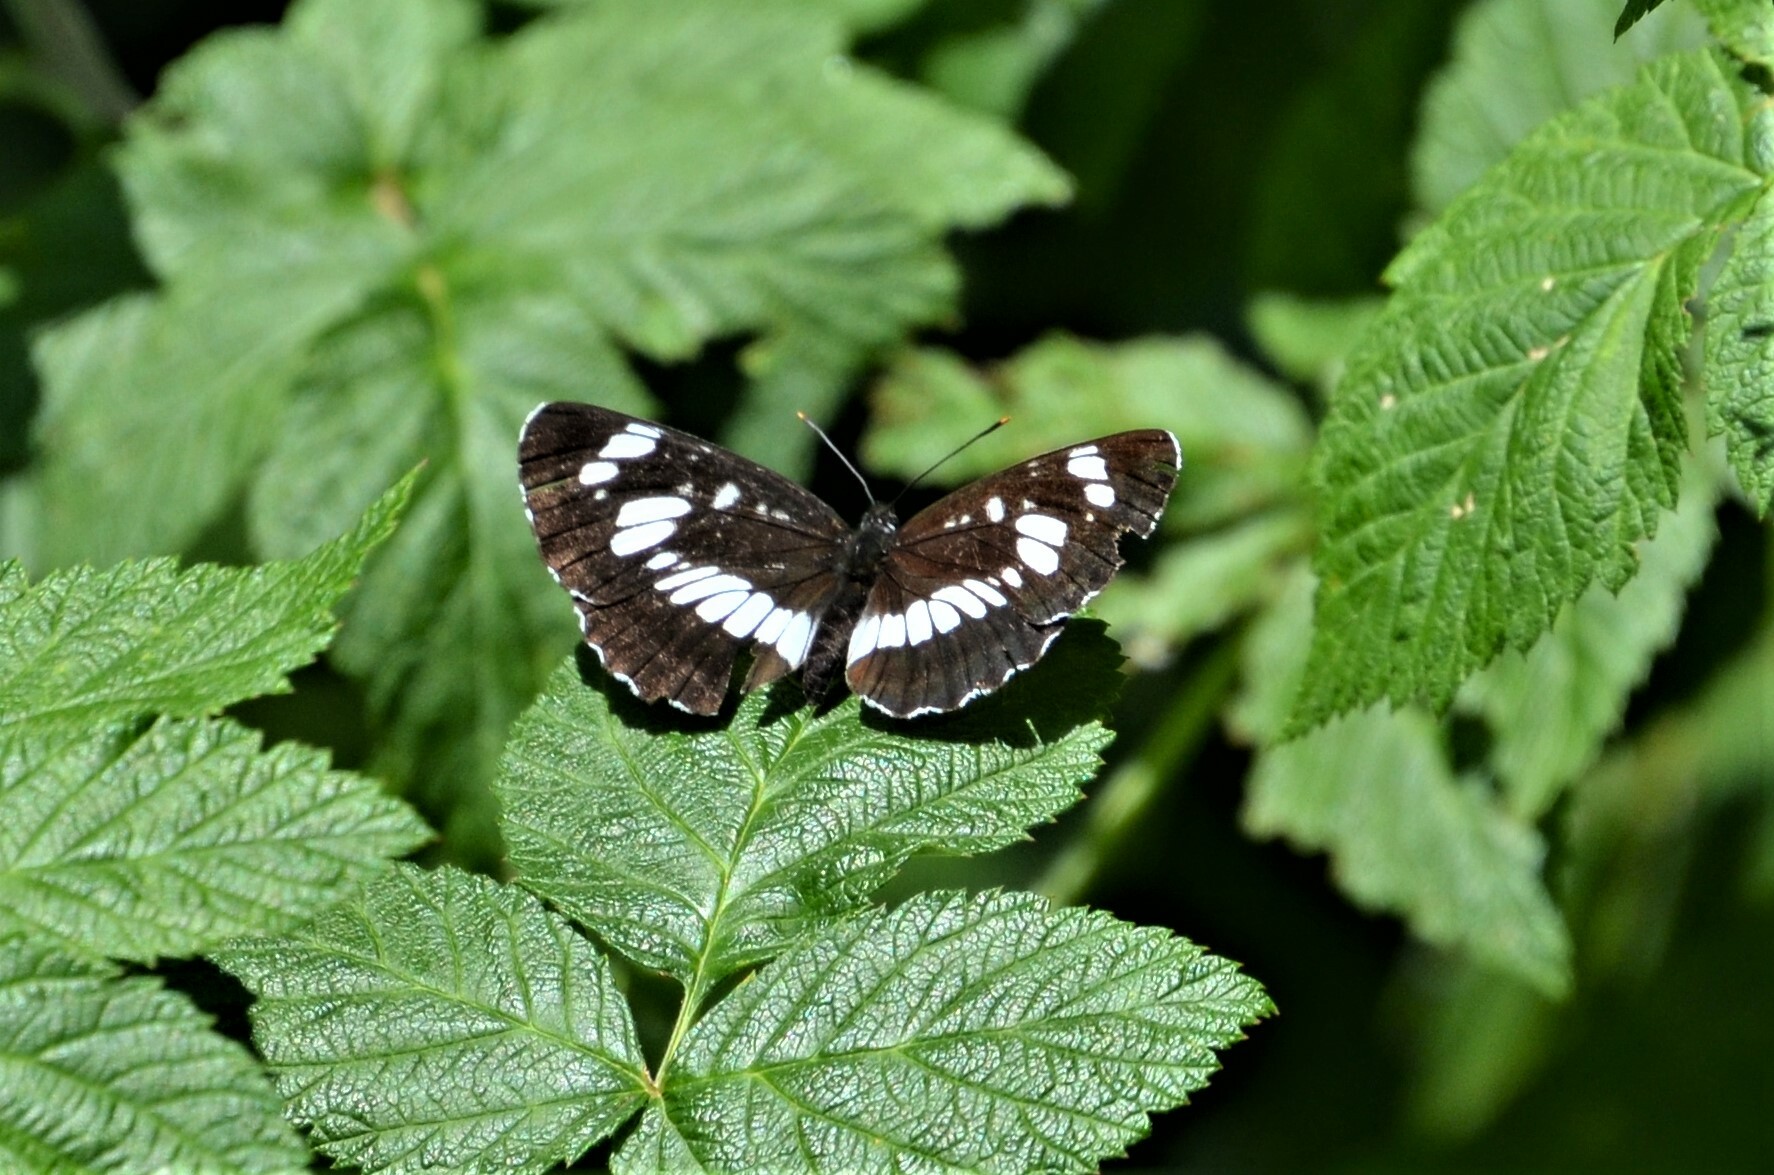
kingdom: Animalia
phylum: Arthropoda
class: Insecta
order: Lepidoptera
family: Nymphalidae
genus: Neptis
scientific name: Neptis rivularis
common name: Hungarian glider
